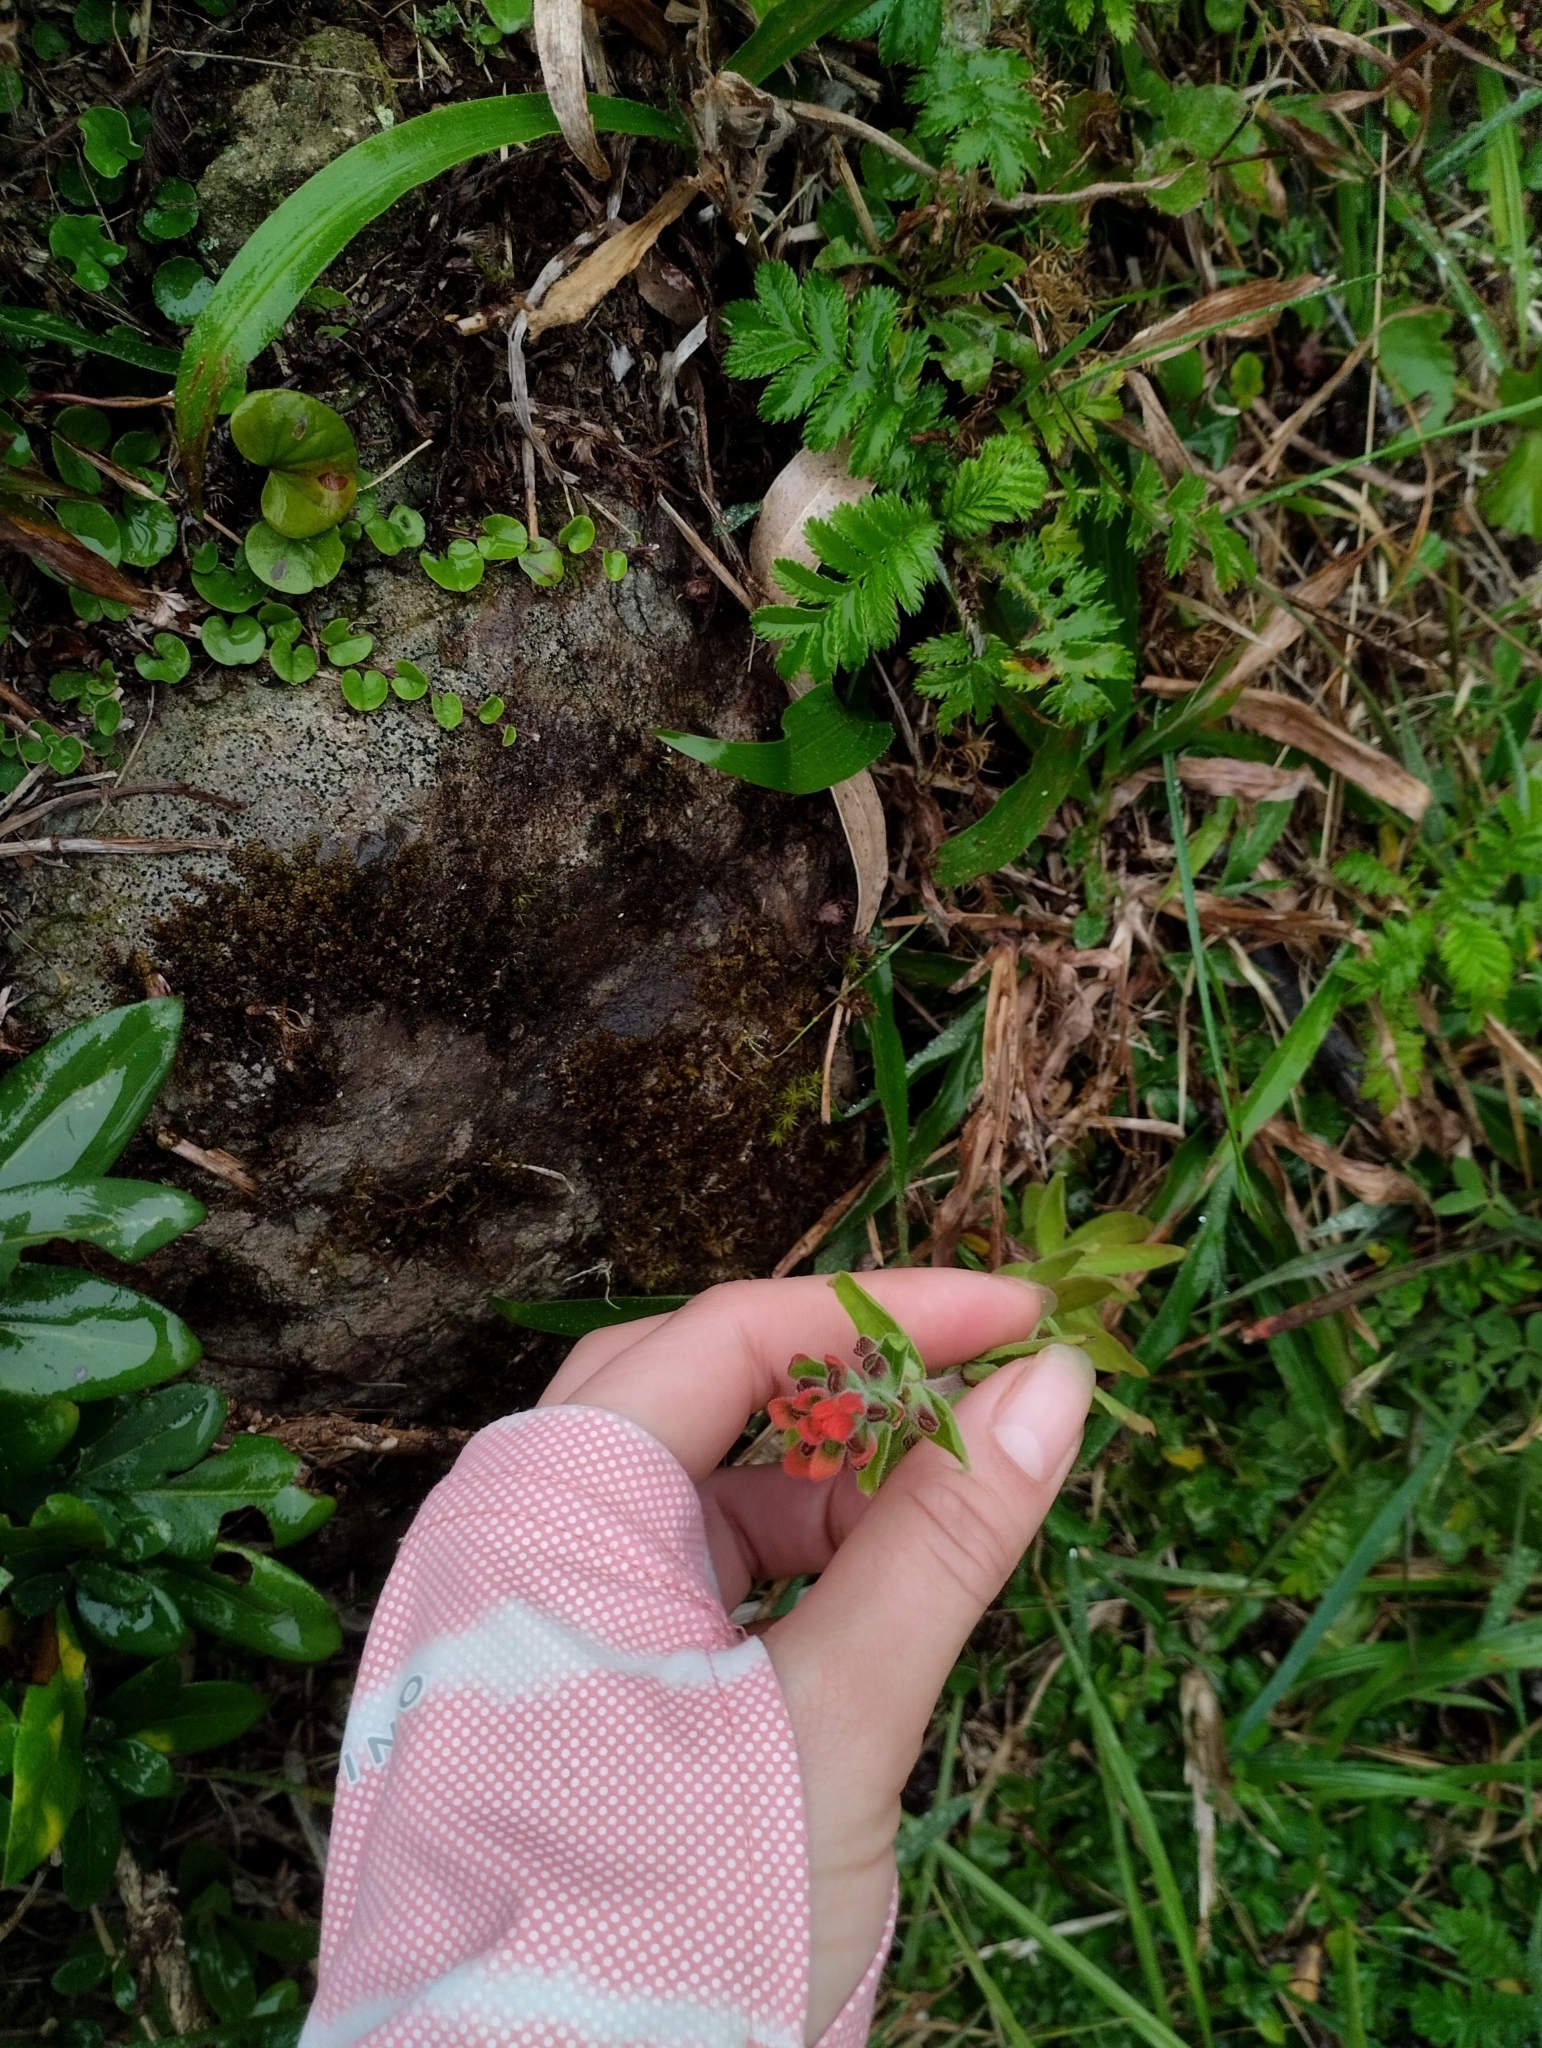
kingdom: Plantae
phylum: Tracheophyta
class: Magnoliopsida
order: Lamiales
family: Orobanchaceae
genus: Castilleja
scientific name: Castilleja arvensis
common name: Indian paintbrush
